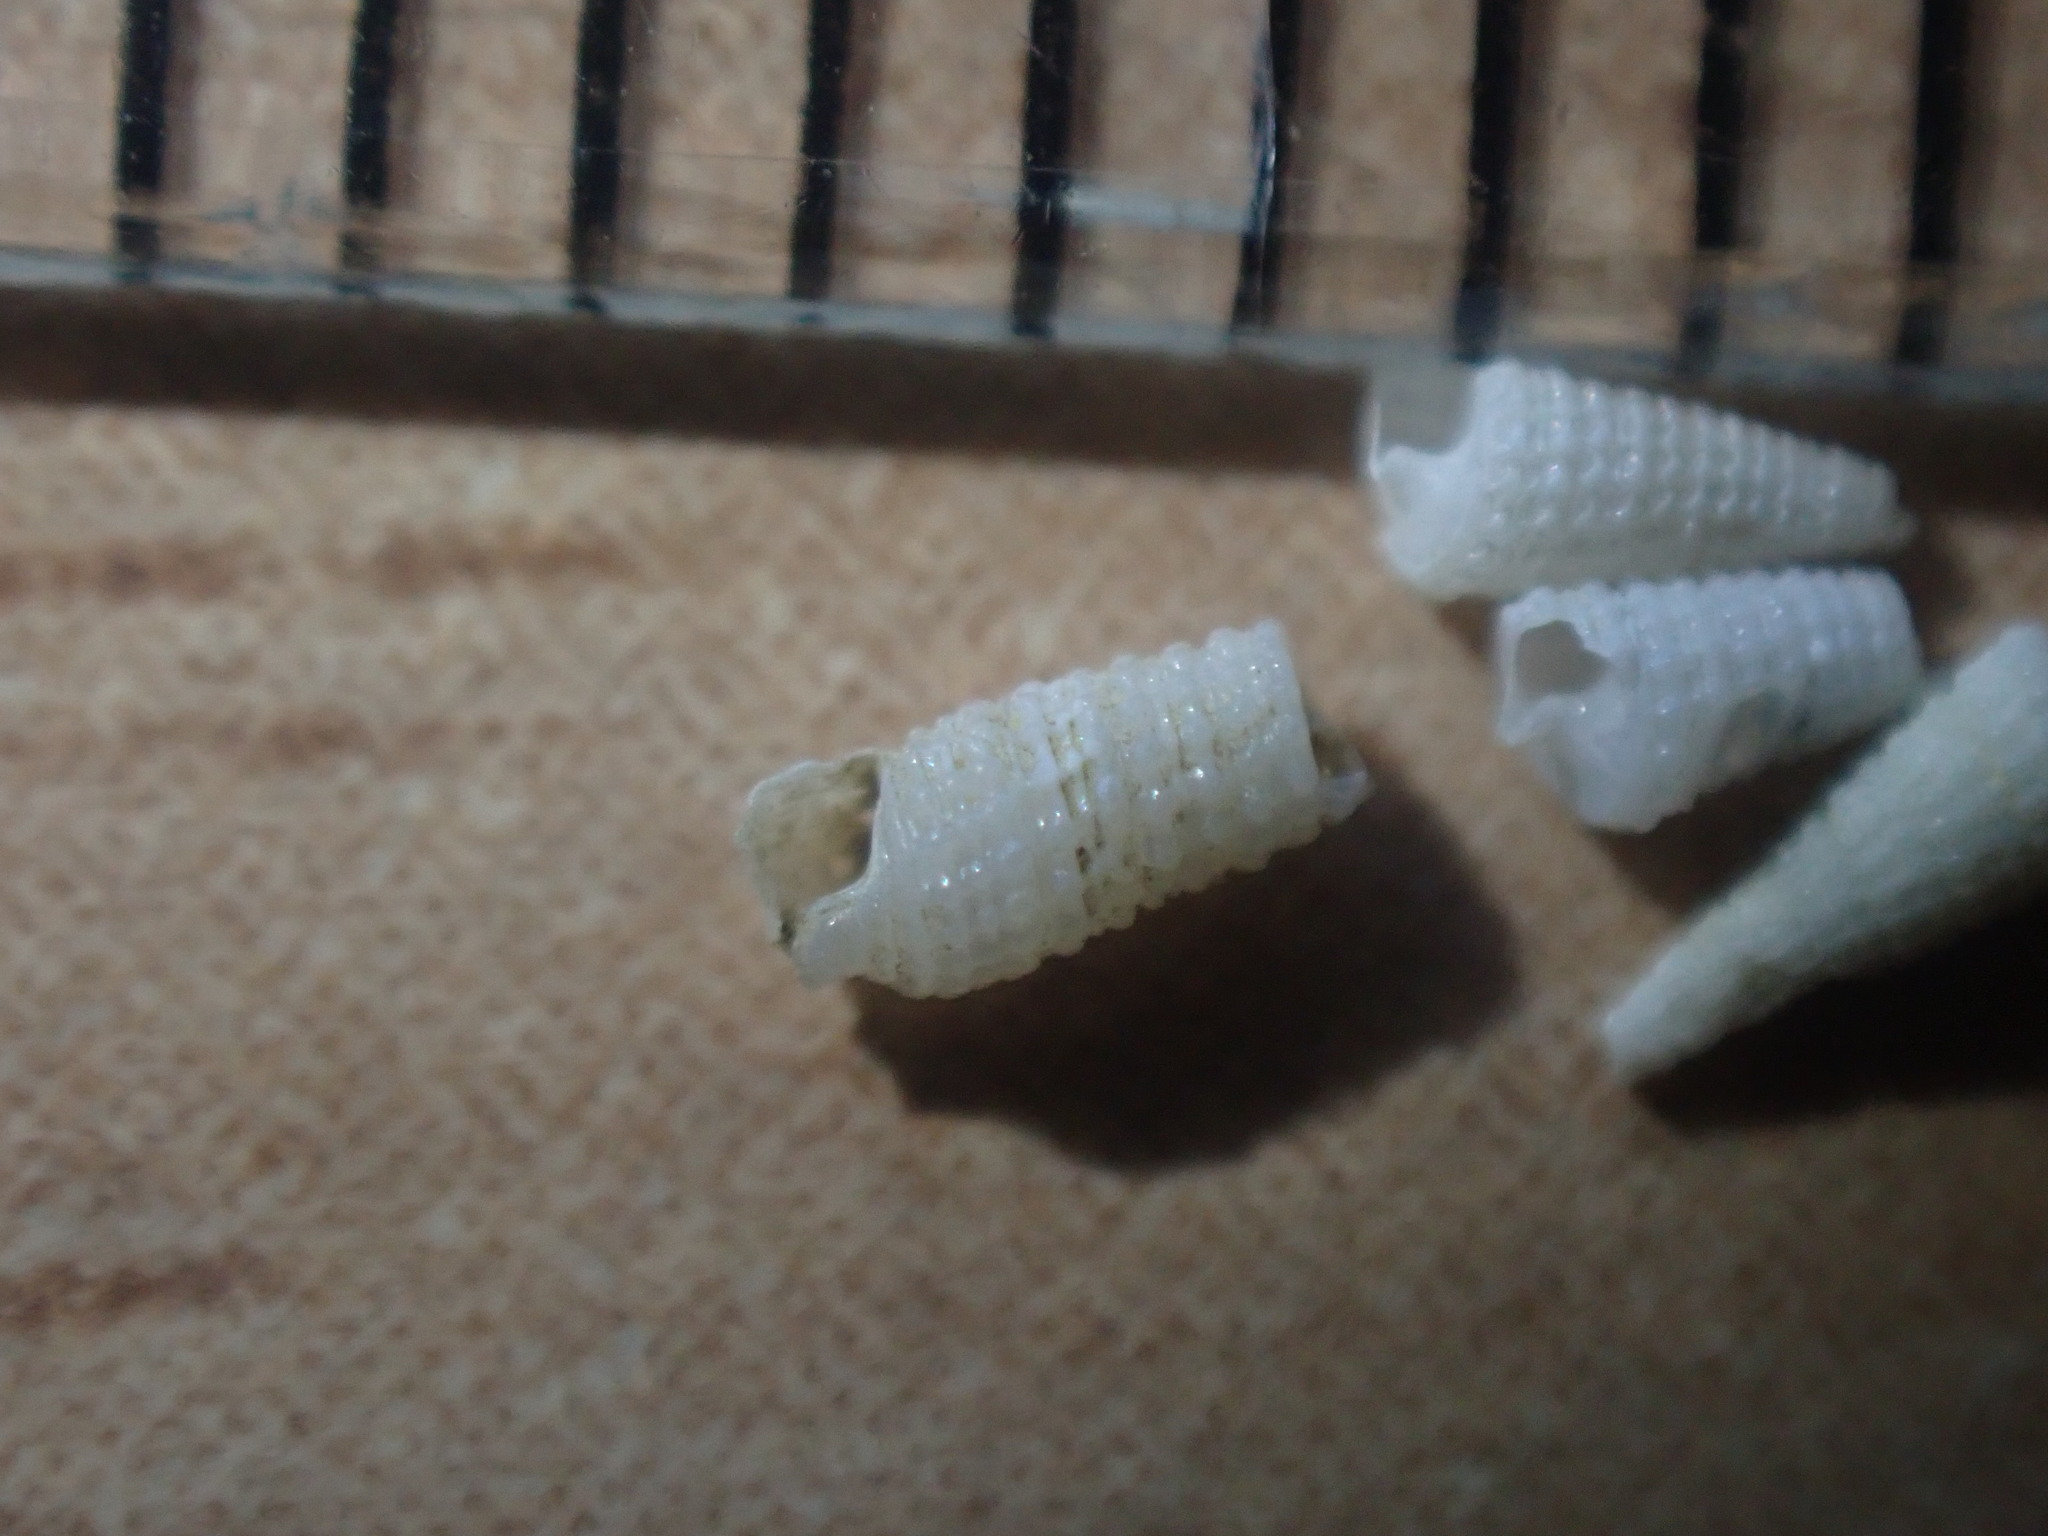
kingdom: Animalia
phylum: Mollusca
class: Gastropoda
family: Triphoridae
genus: Bouchetriphora
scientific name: Bouchetriphora pallida
